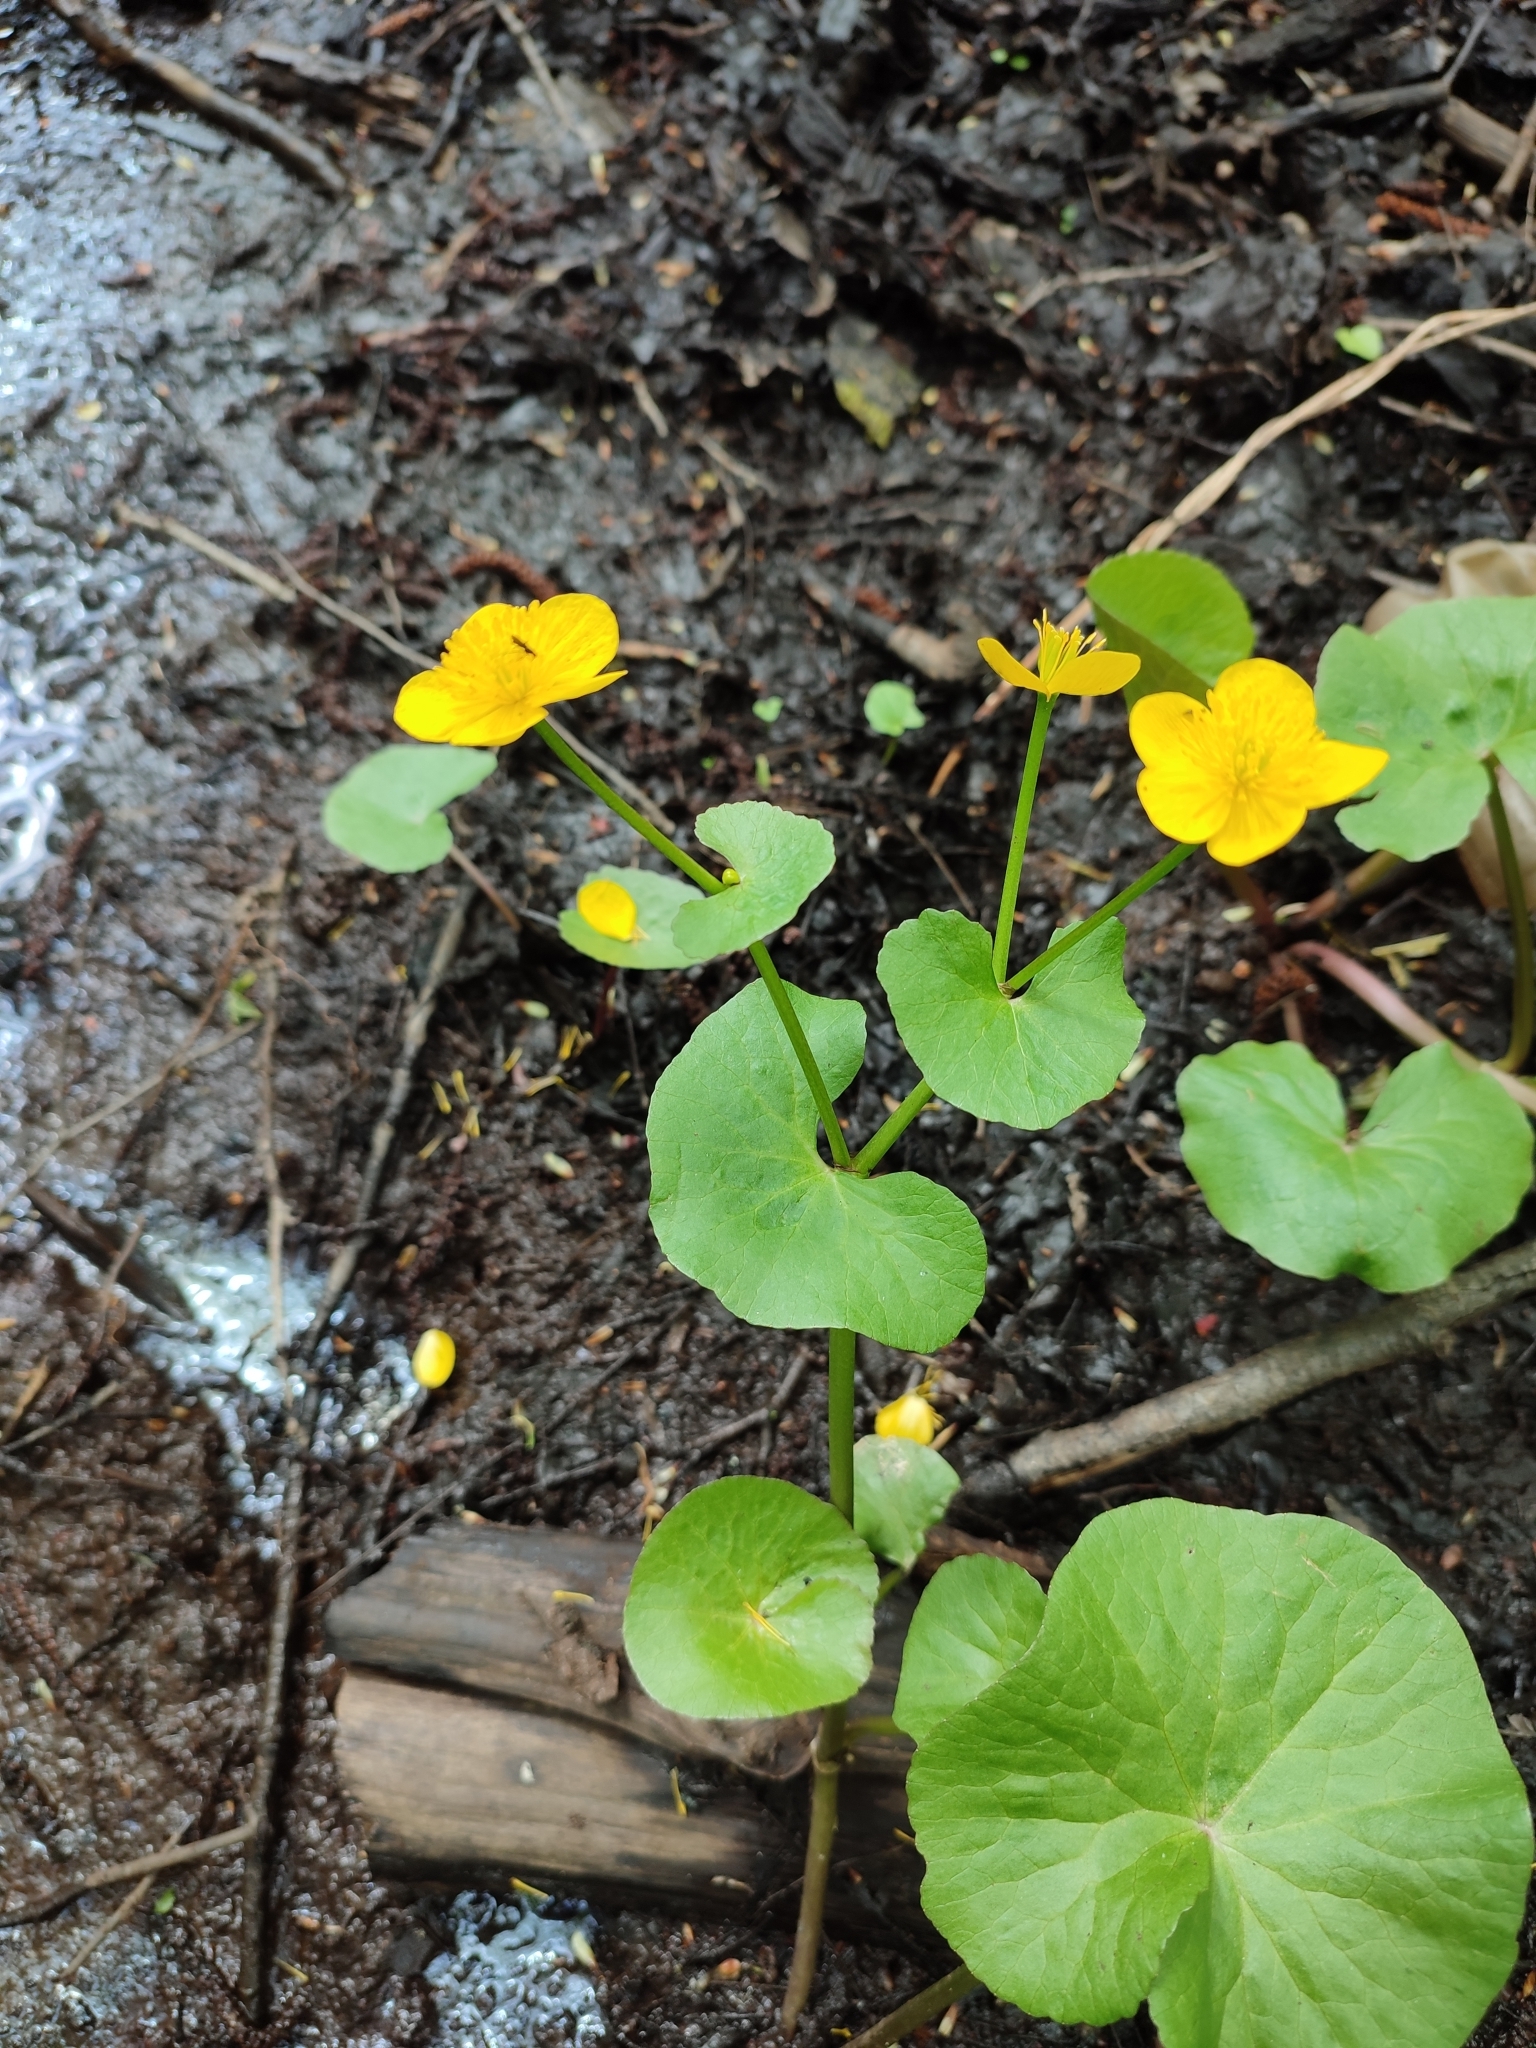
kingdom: Plantae
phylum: Tracheophyta
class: Magnoliopsida
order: Ranunculales
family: Ranunculaceae
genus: Caltha
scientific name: Caltha palustris
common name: Marsh marigold
